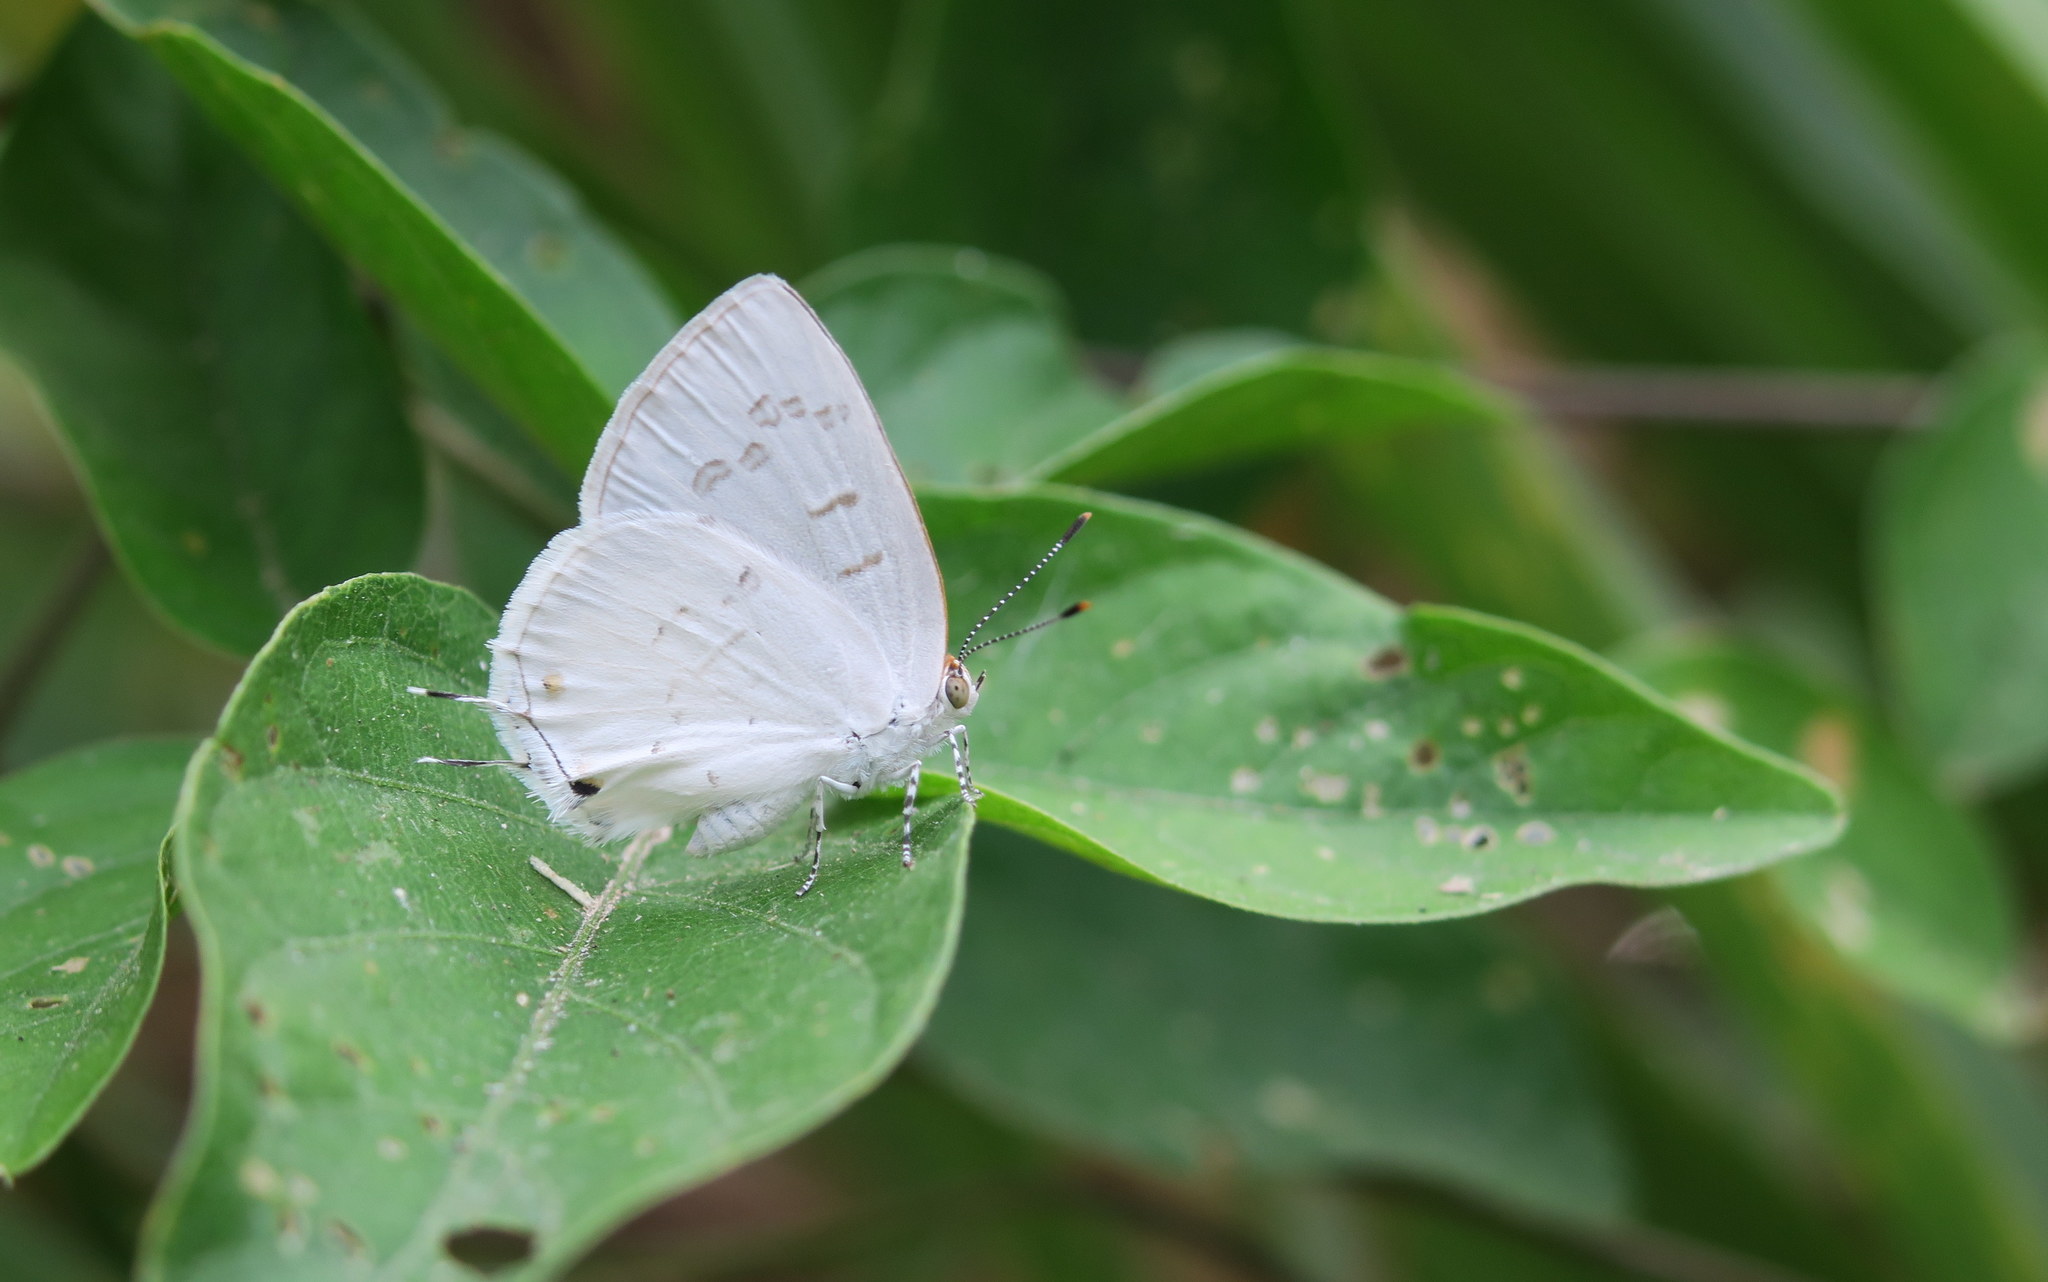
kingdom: Animalia
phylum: Arthropoda
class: Insecta
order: Lepidoptera
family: Lycaenidae
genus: Thecla
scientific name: Thecla una
